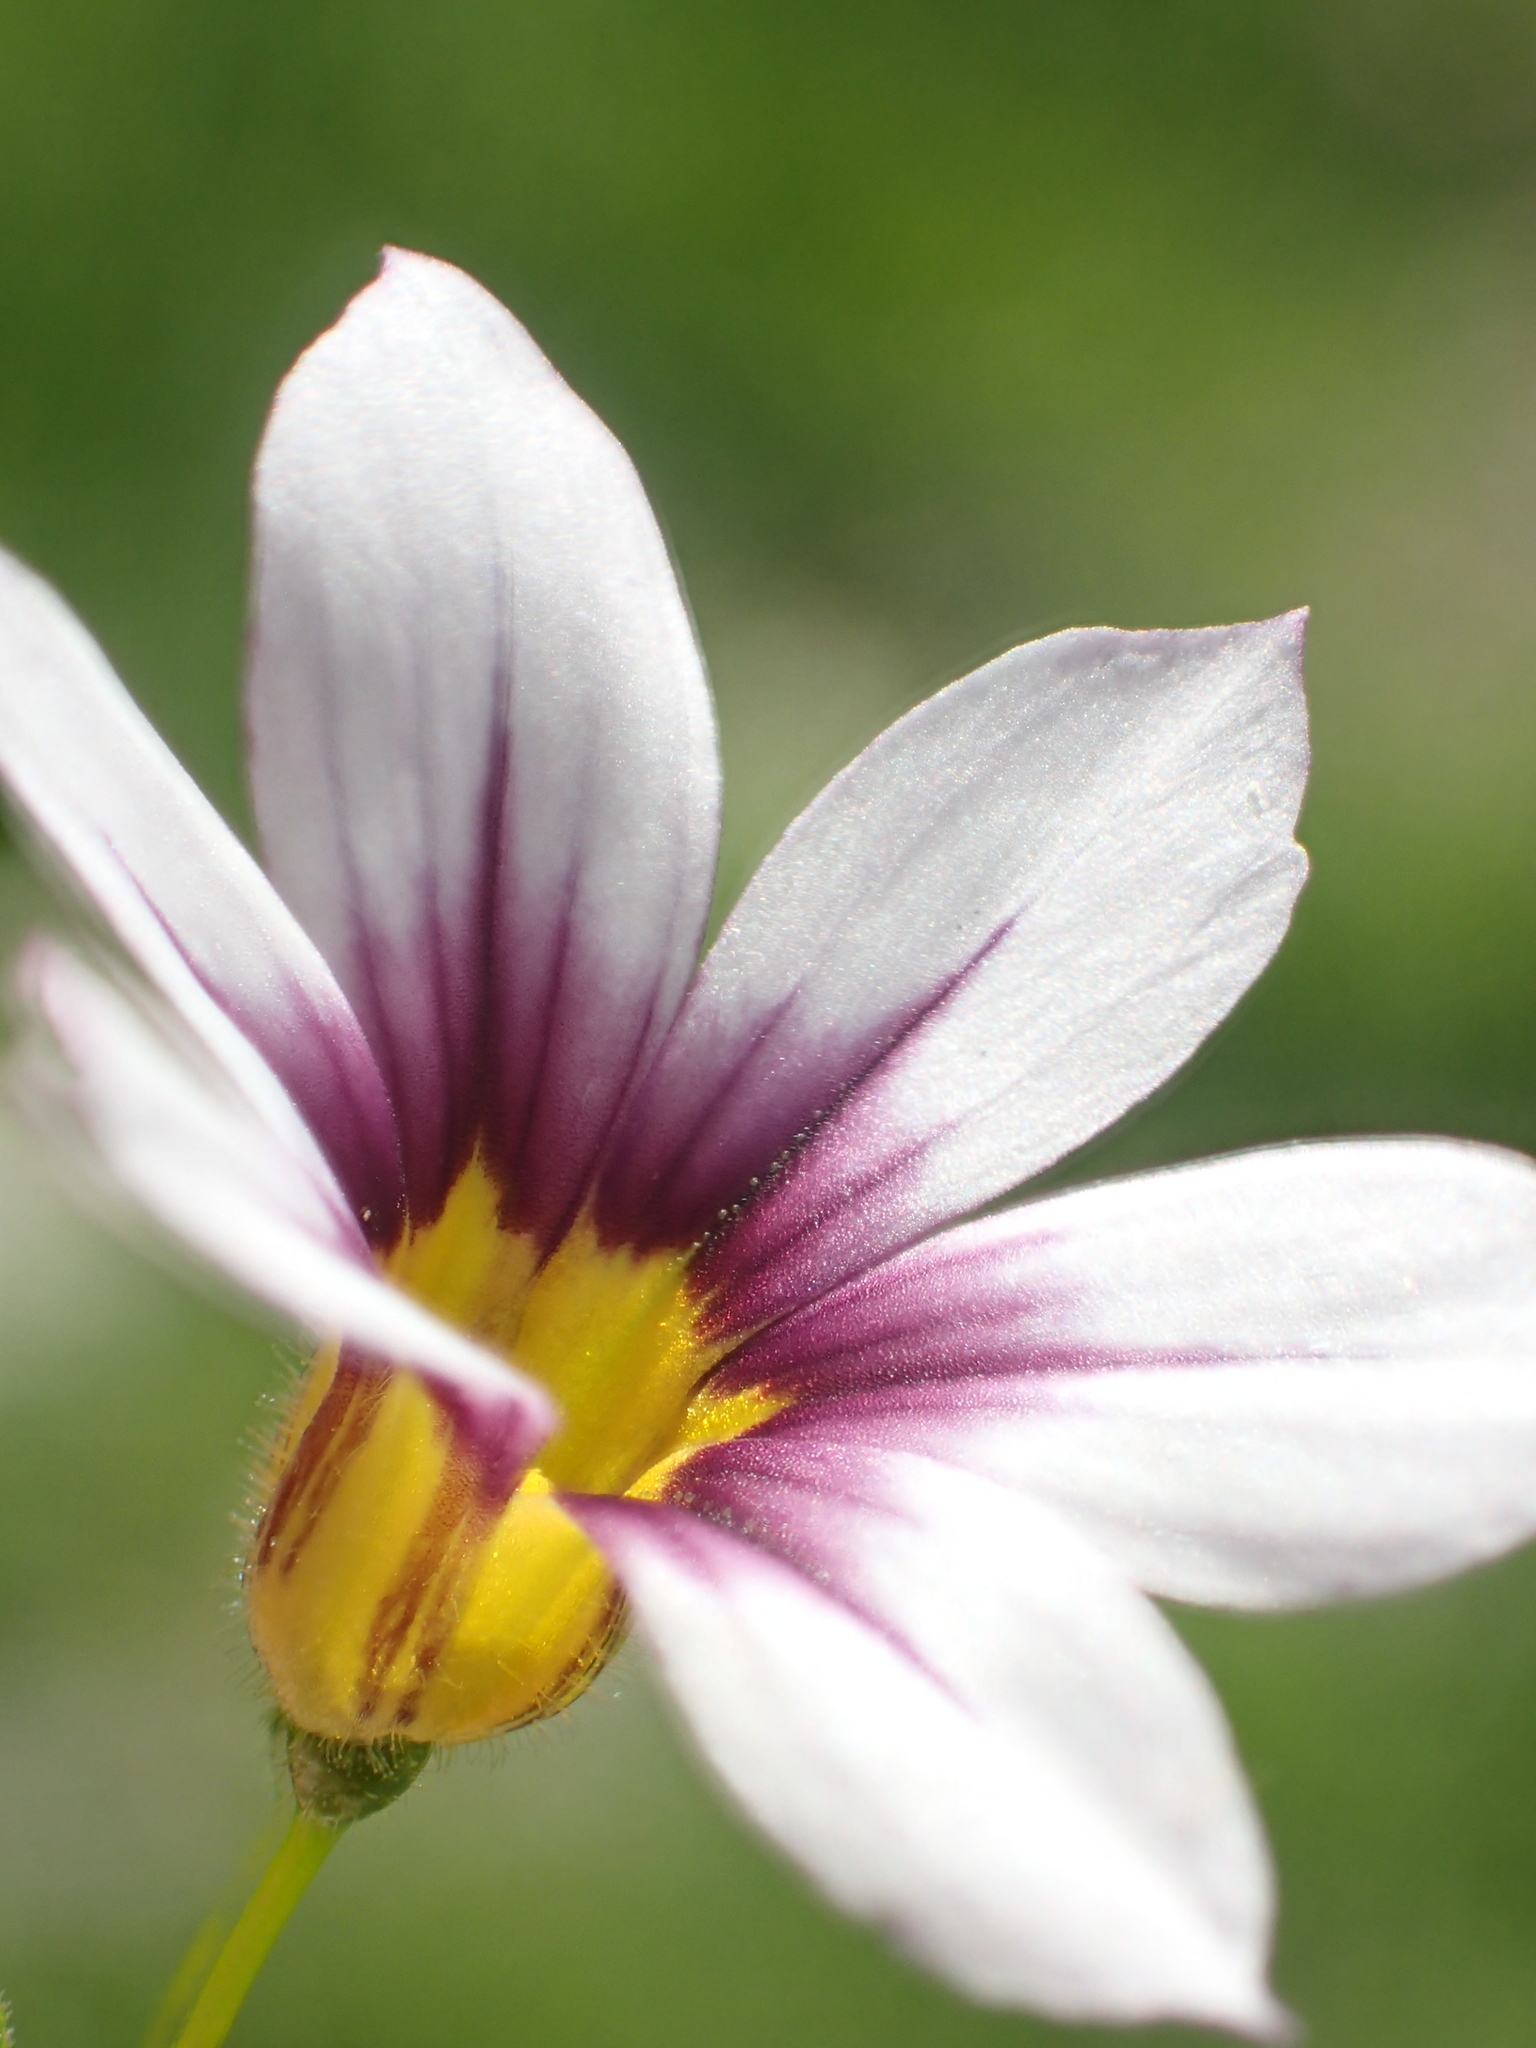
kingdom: Plantae
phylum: Tracheophyta
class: Liliopsida
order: Asparagales
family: Iridaceae
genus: Sisyrinchium
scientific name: Sisyrinchium micranthum
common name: Bermuda pigroot
